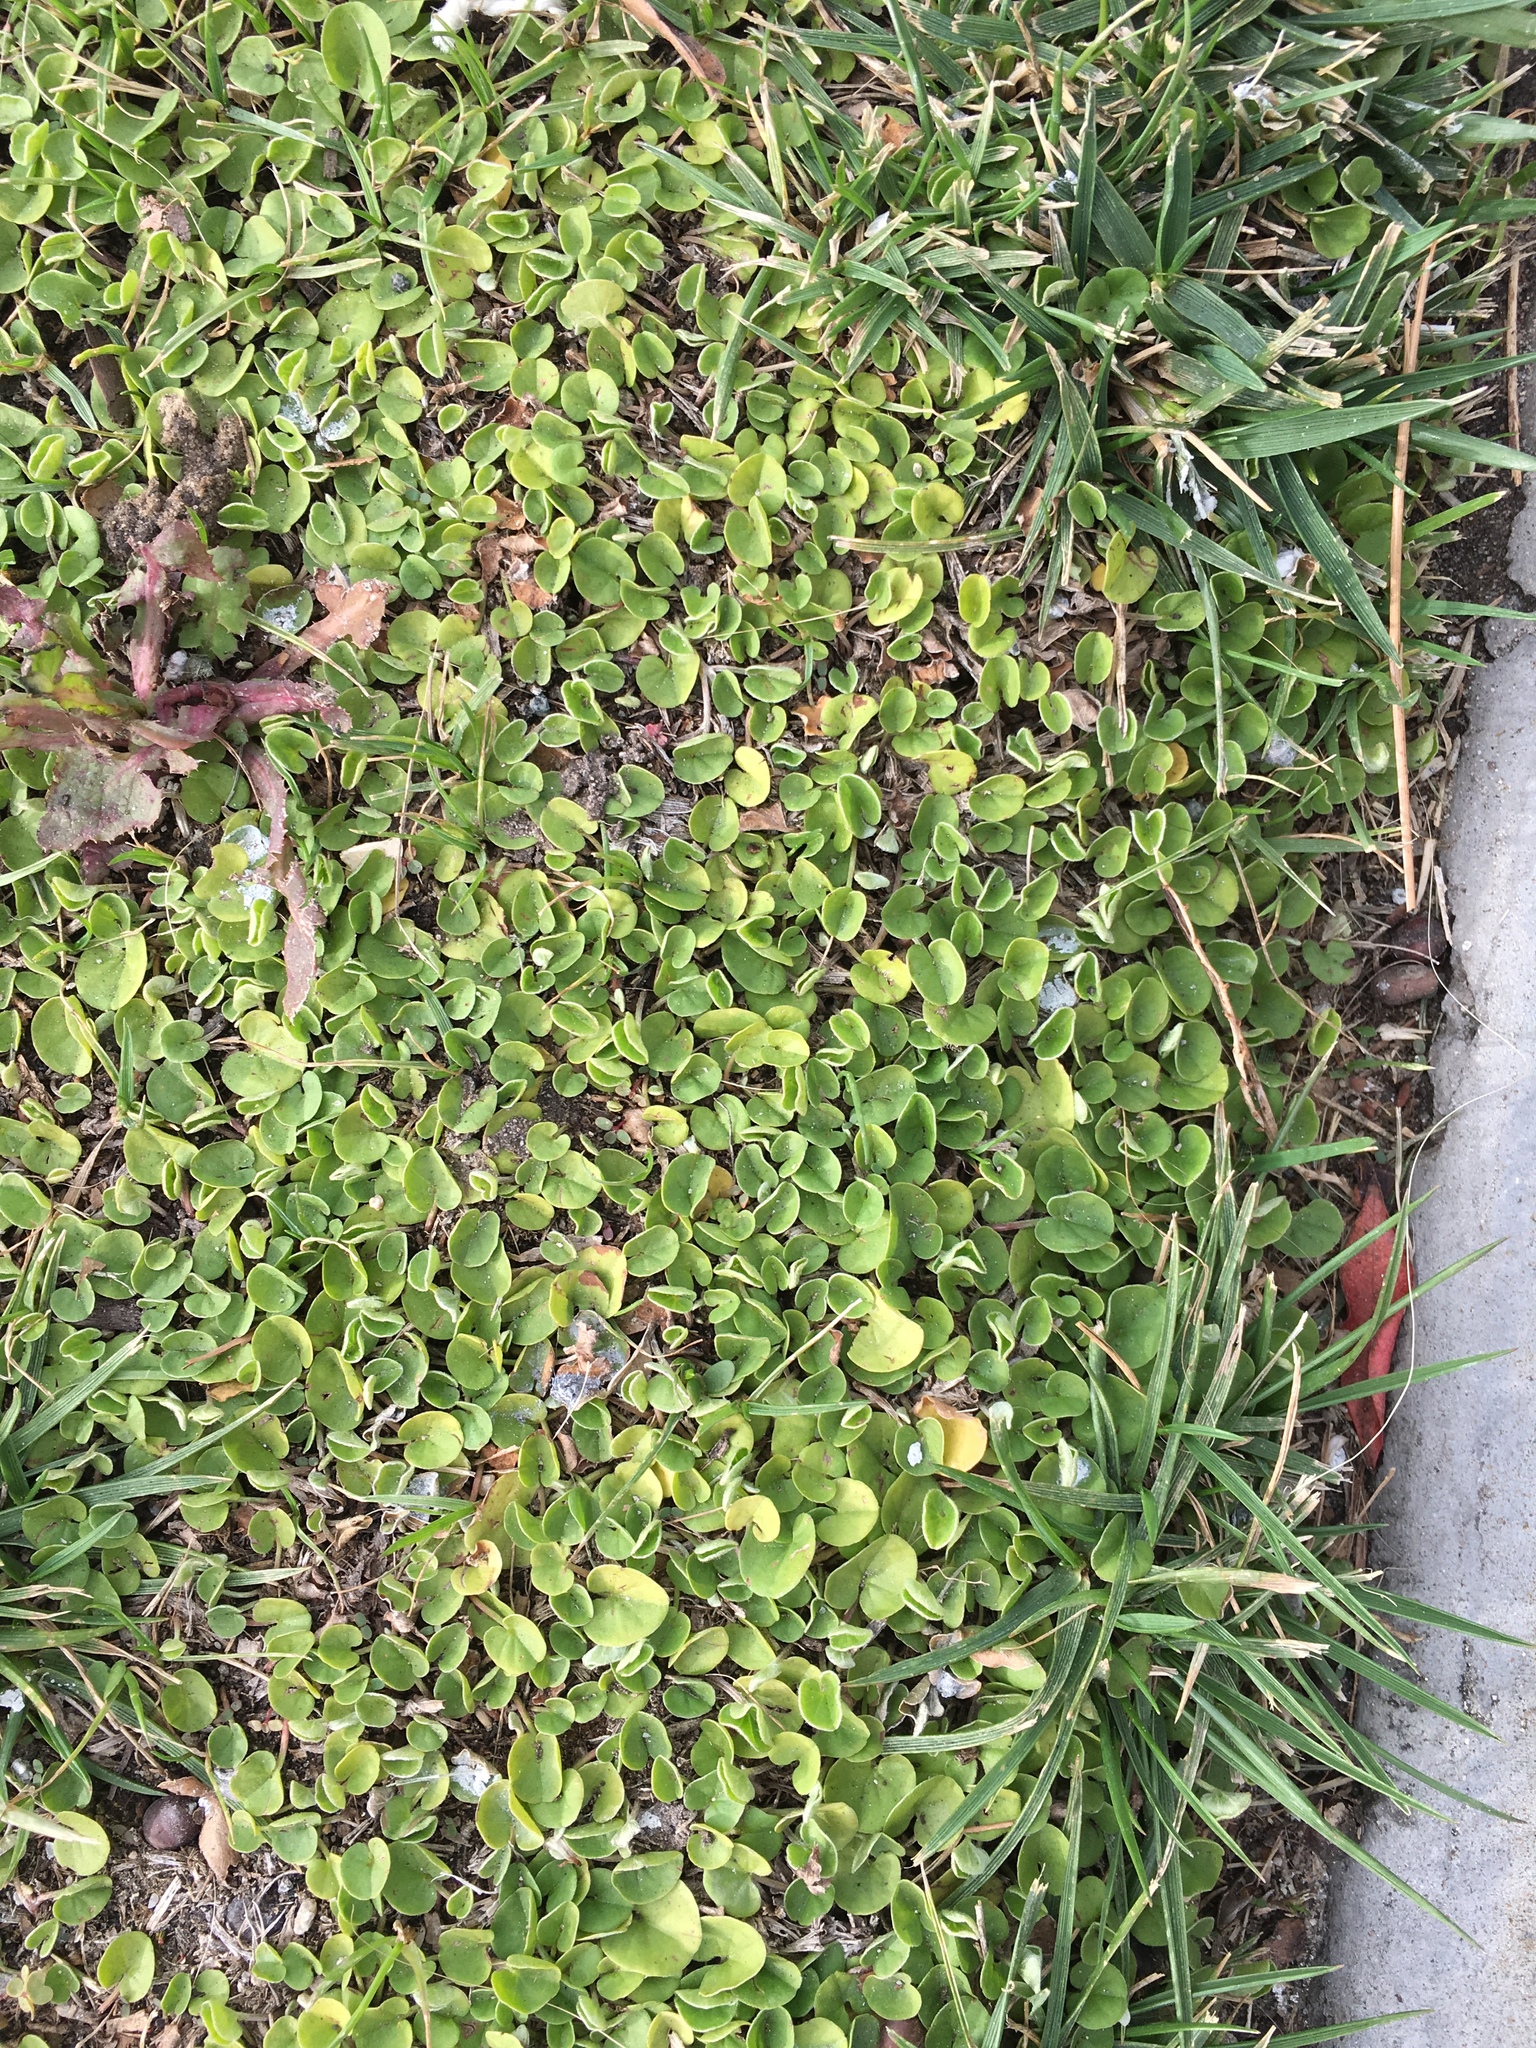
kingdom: Plantae
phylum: Tracheophyta
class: Magnoliopsida
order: Solanales
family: Convolvulaceae
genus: Dichondra
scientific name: Dichondra micrantha
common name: Kidneyweed
